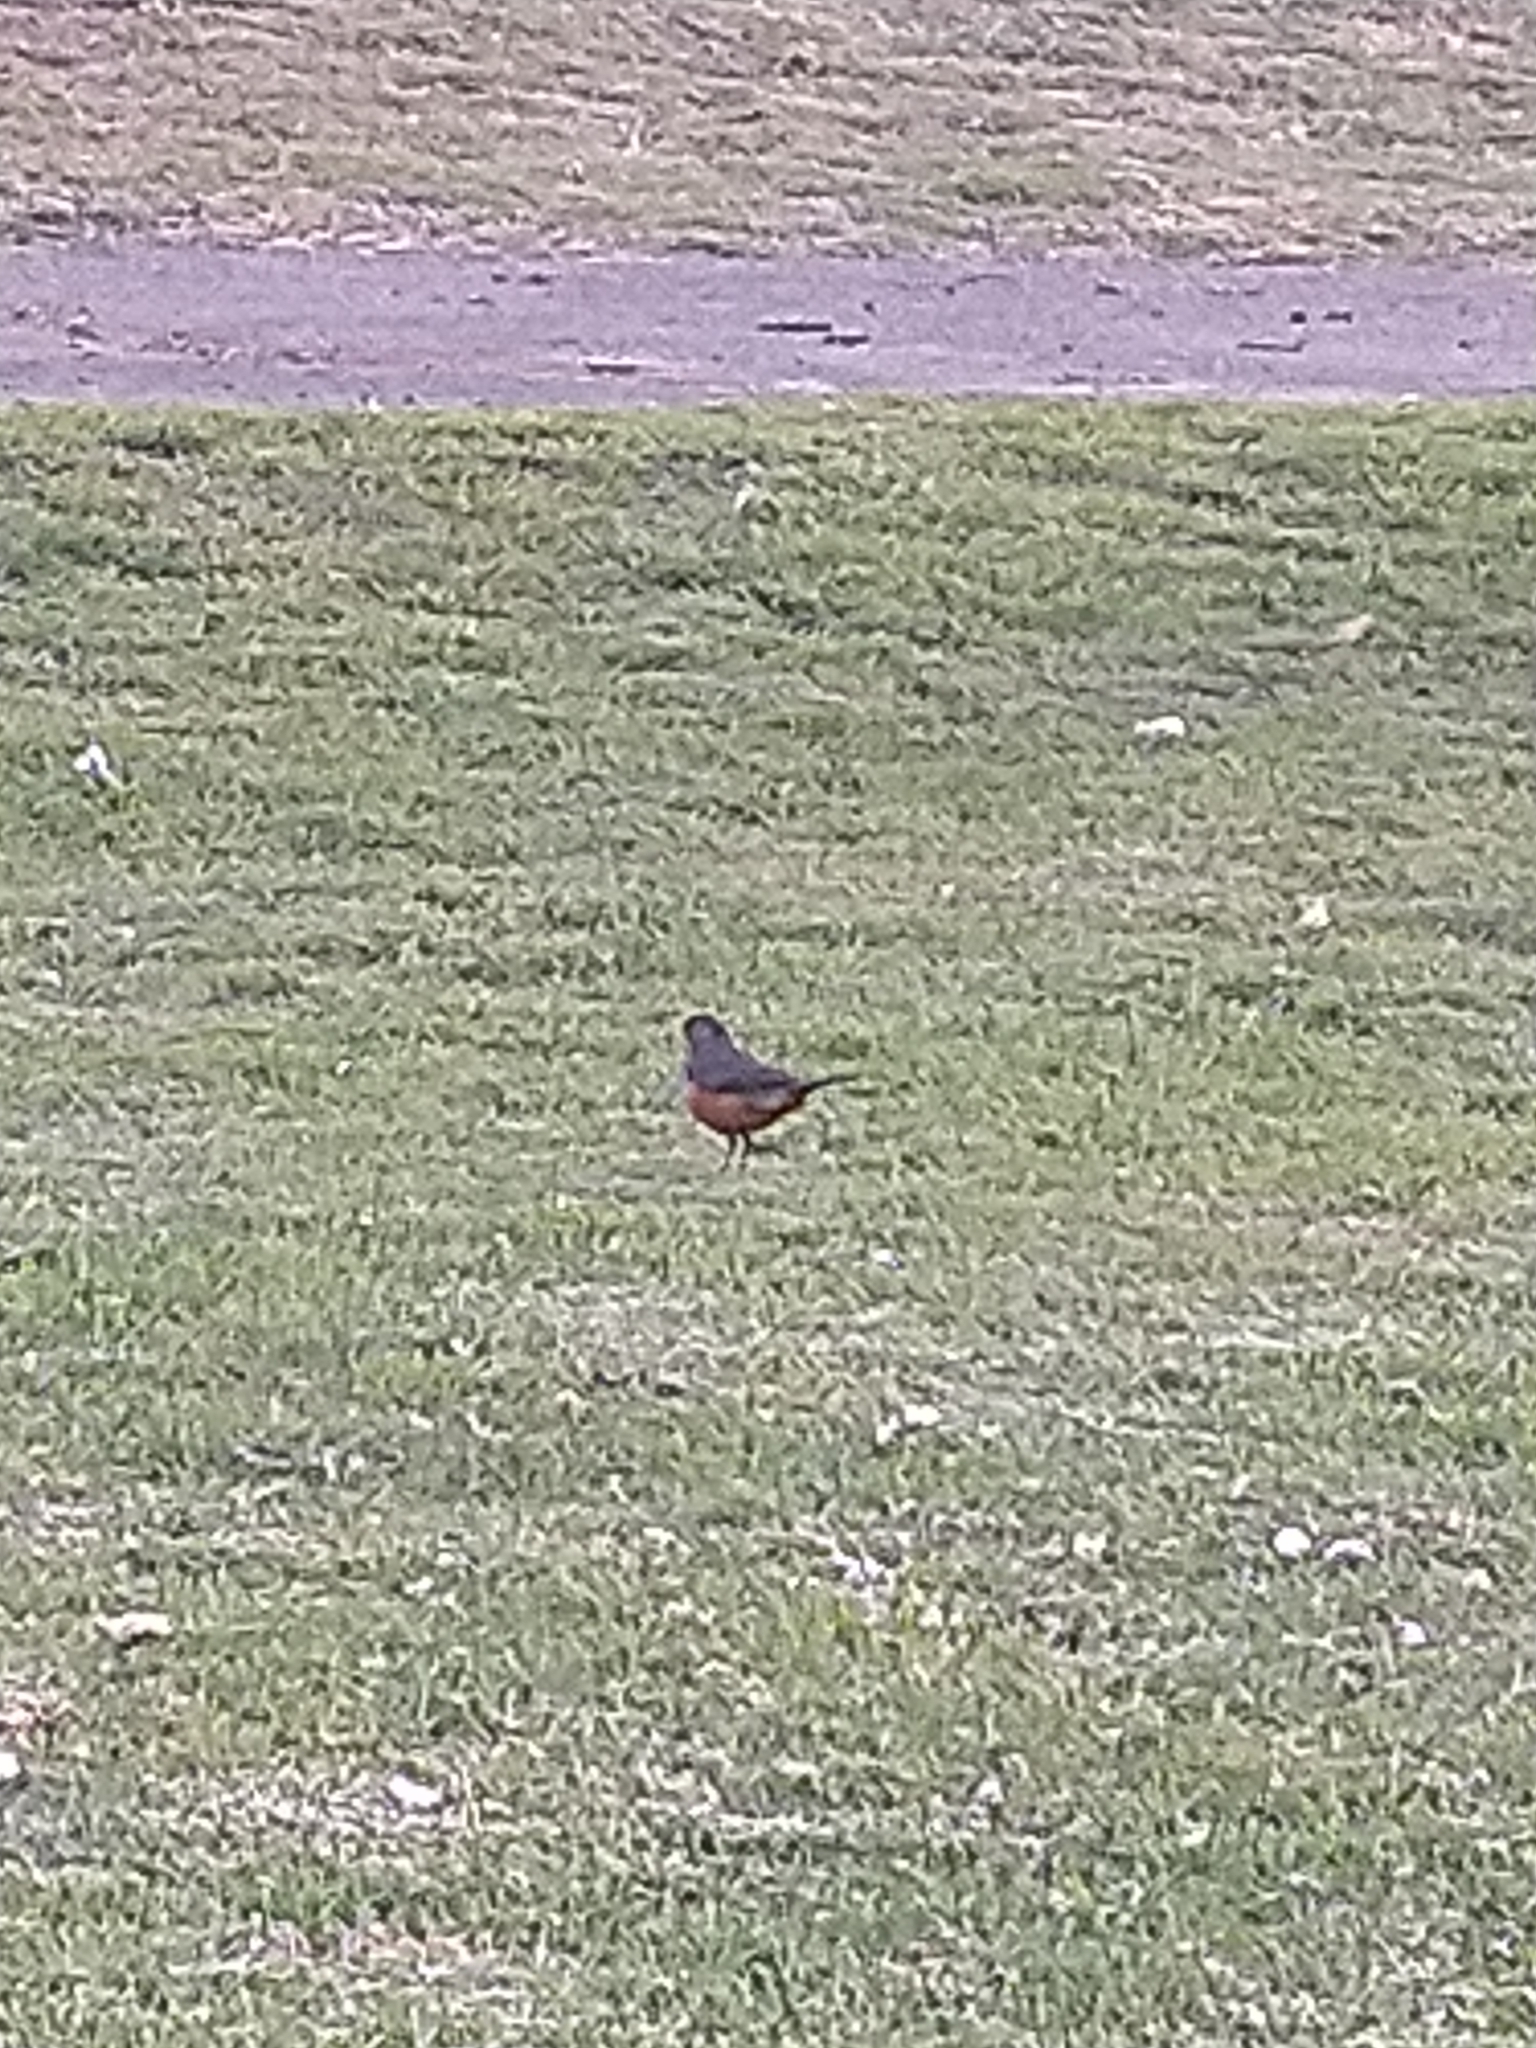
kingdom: Animalia
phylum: Chordata
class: Aves
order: Passeriformes
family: Turdidae
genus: Turdus
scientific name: Turdus rufiventris
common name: Rufous-bellied thrush
